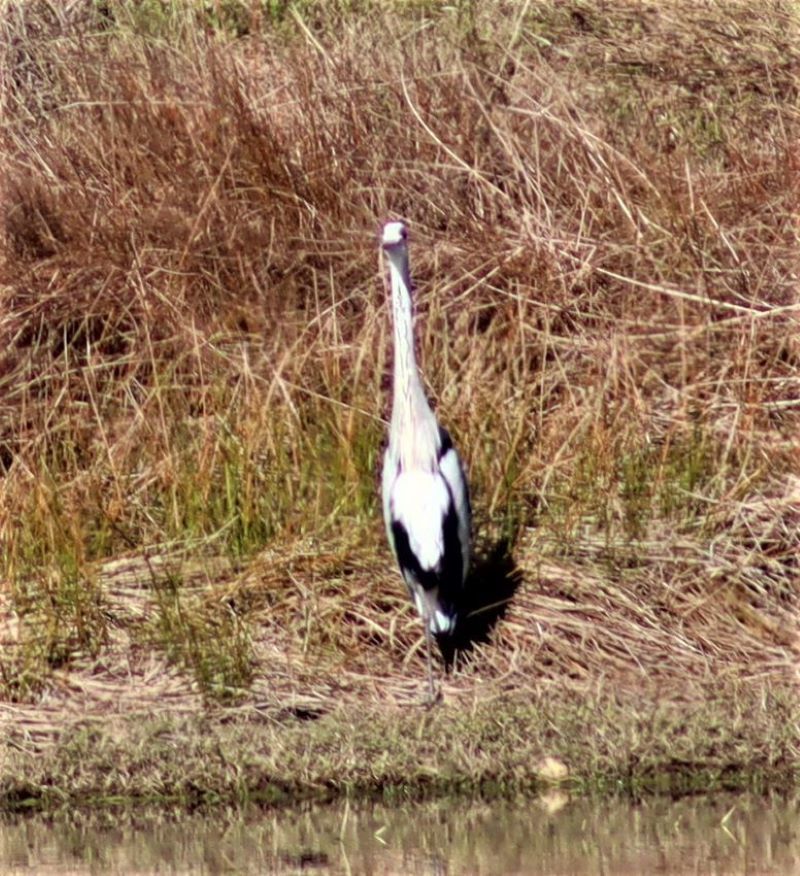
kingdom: Animalia
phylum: Chordata
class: Aves
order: Pelecaniformes
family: Ardeidae
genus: Ardea
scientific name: Ardea cinerea
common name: Grey heron
